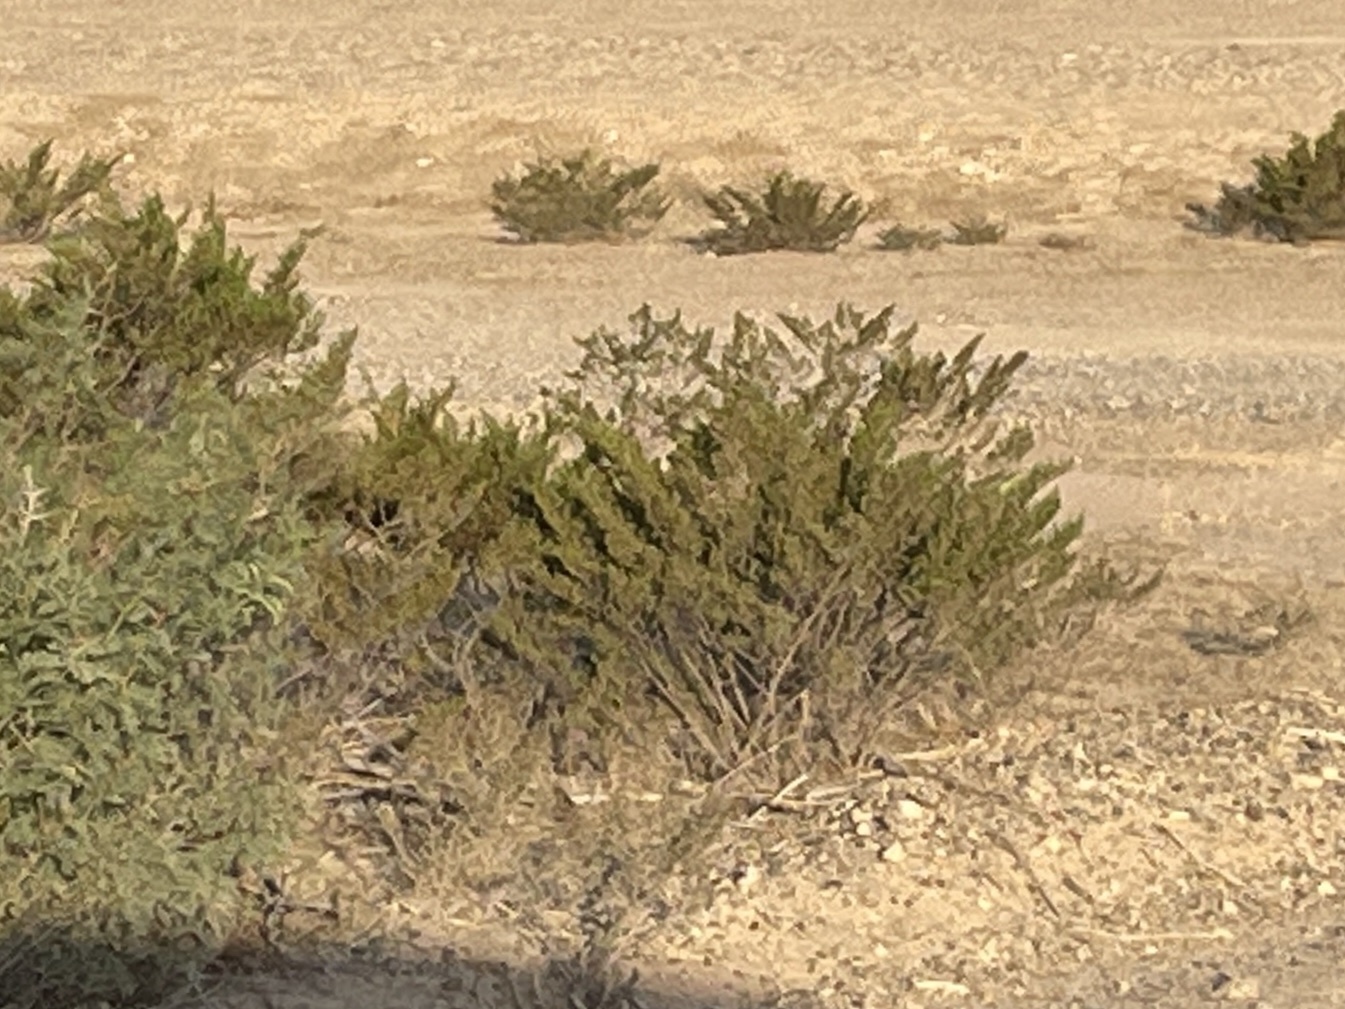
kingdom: Plantae
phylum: Tracheophyta
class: Magnoliopsida
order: Zygophyllales
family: Zygophyllaceae
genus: Larrea
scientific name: Larrea tridentata
